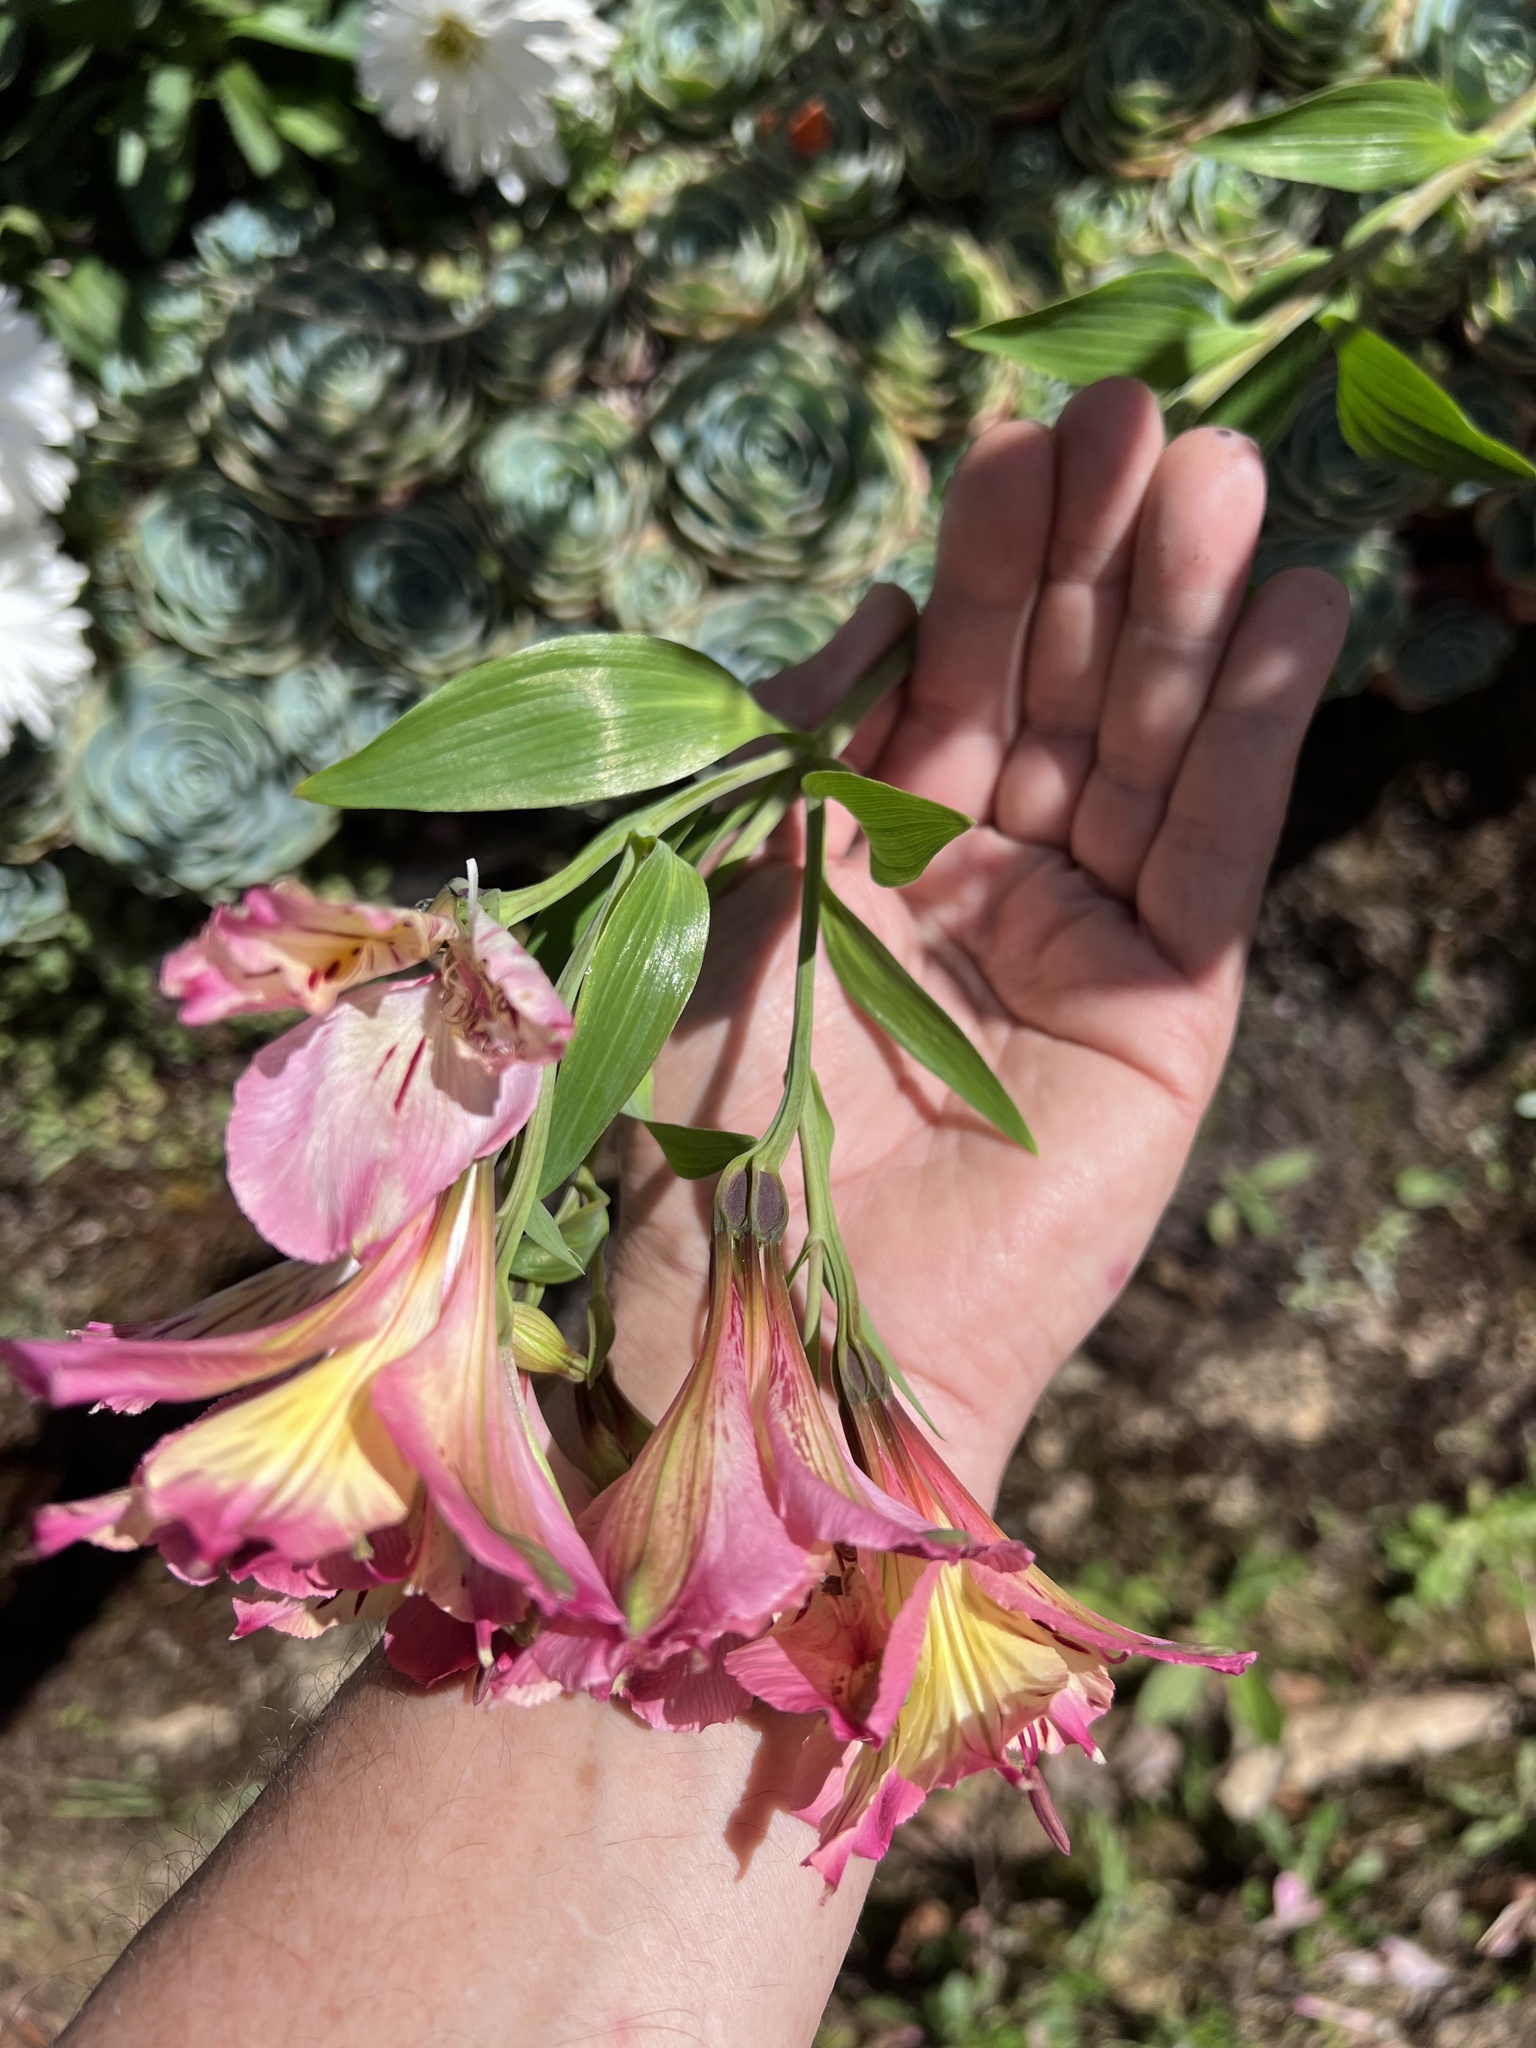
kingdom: Plantae
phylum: Tracheophyta
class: Liliopsida
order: Liliales
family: Alstroemeriaceae
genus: Alstroemeria
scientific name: Alstroemeria aurea
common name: Peruvian lily
